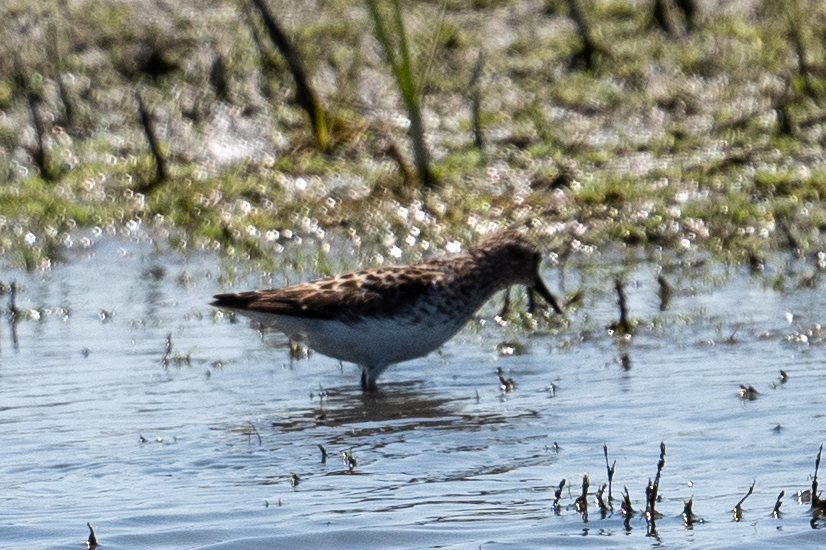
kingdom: Animalia
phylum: Chordata
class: Aves
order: Charadriiformes
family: Scolopacidae
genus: Calidris
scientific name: Calidris minutilla
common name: Least sandpiper
